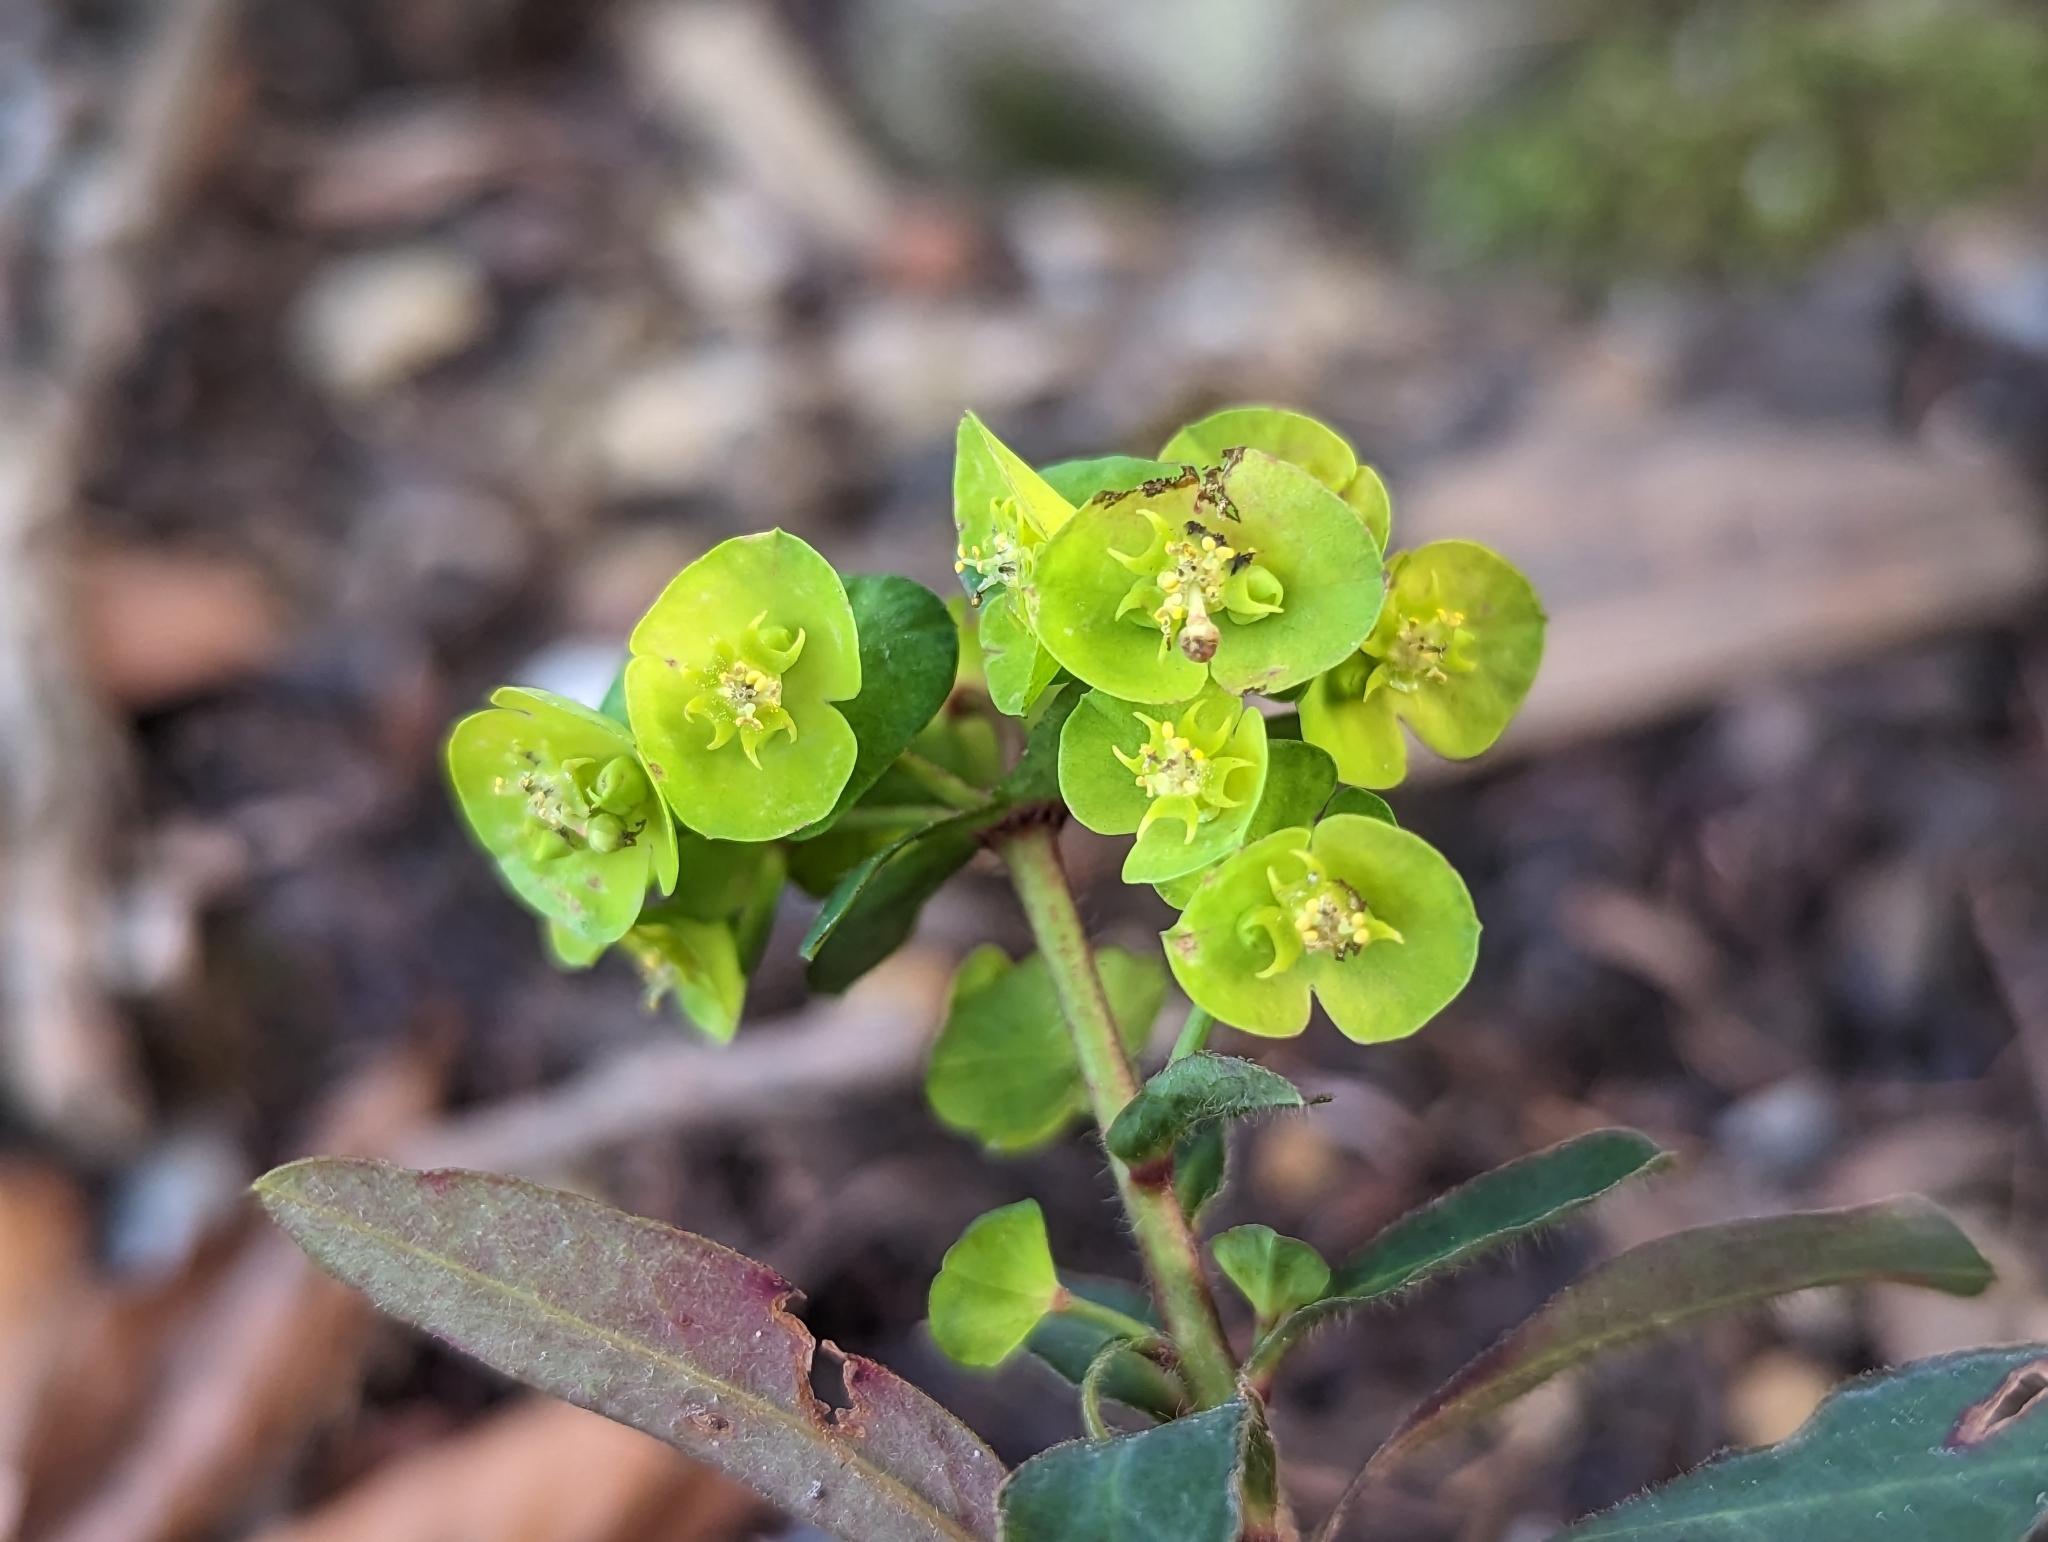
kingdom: Plantae
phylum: Tracheophyta
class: Magnoliopsida
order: Malpighiales
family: Euphorbiaceae
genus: Euphorbia
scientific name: Euphorbia amygdaloides
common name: Wood spurge
